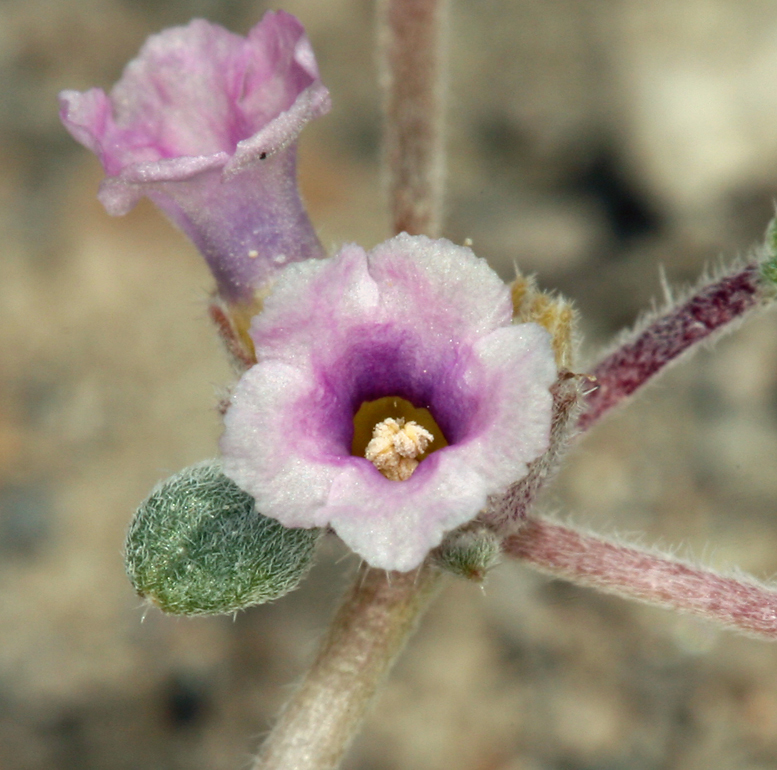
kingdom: Plantae
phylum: Tracheophyta
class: Magnoliopsida
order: Boraginales
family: Ehretiaceae
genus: Tiquilia
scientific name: Tiquilia nuttallii
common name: Rosette tiquilia
